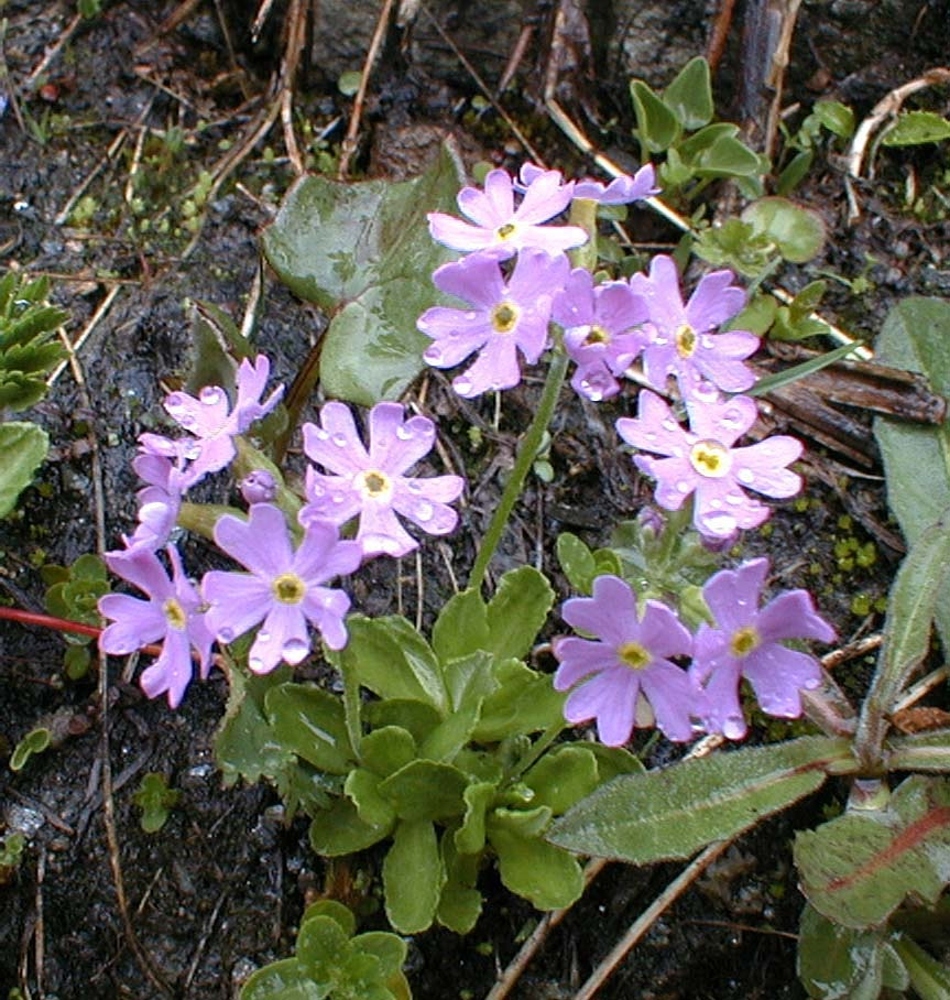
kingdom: Plantae
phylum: Tracheophyta
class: Magnoliopsida
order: Ericales
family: Primulaceae
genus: Primula
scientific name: Primula farinosa
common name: Bird's-eye primrose
